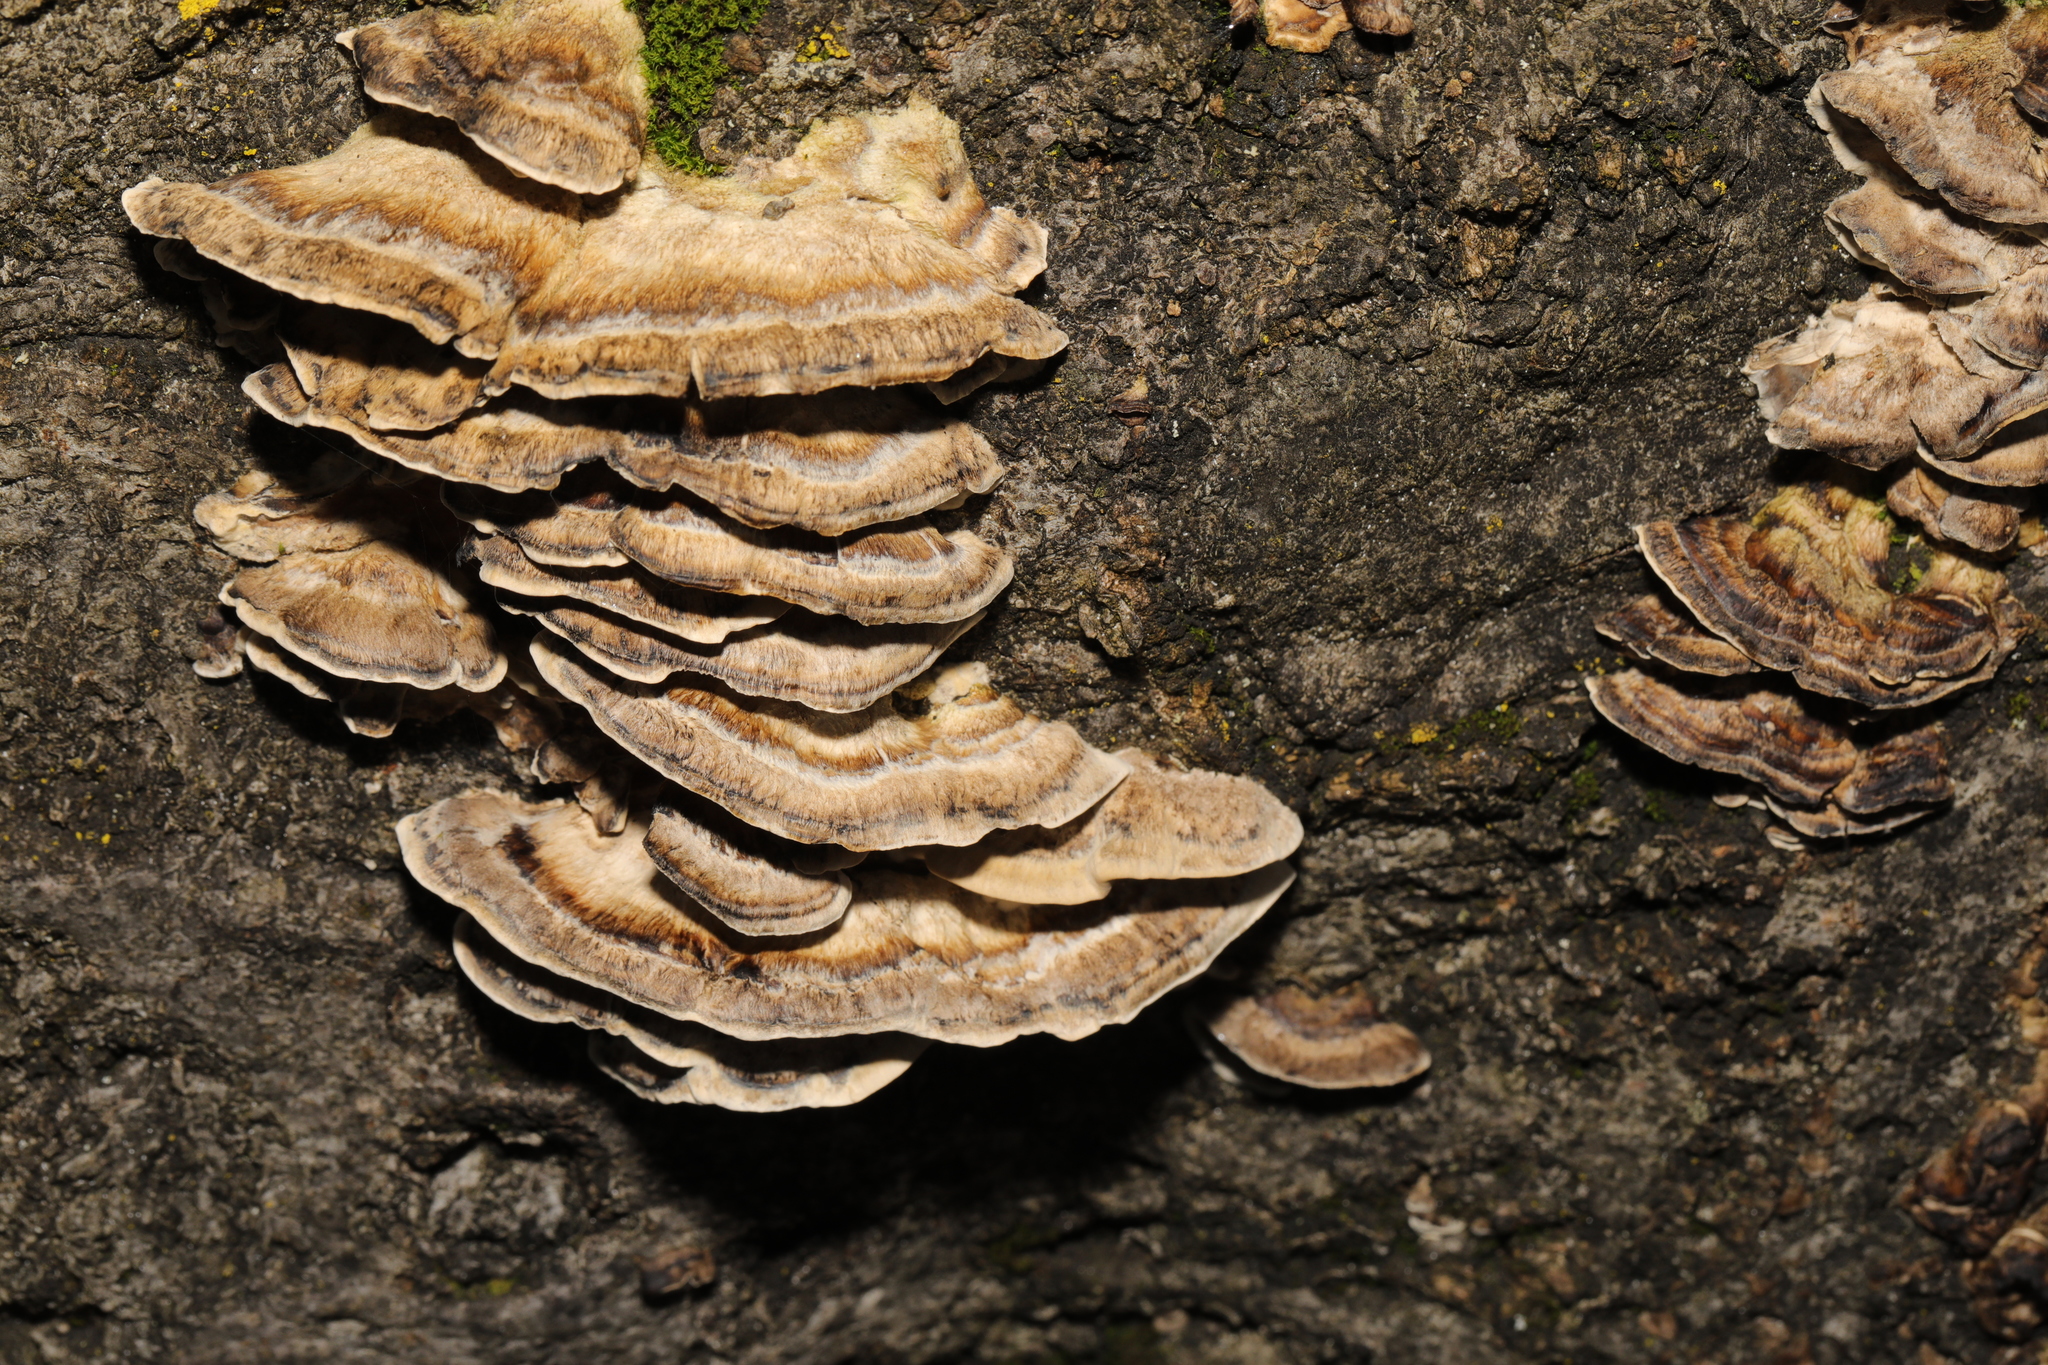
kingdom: Fungi
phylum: Basidiomycota
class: Agaricomycetes
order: Polyporales
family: Phanerochaetaceae
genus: Bjerkandera
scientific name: Bjerkandera adusta
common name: Smoky bracket
